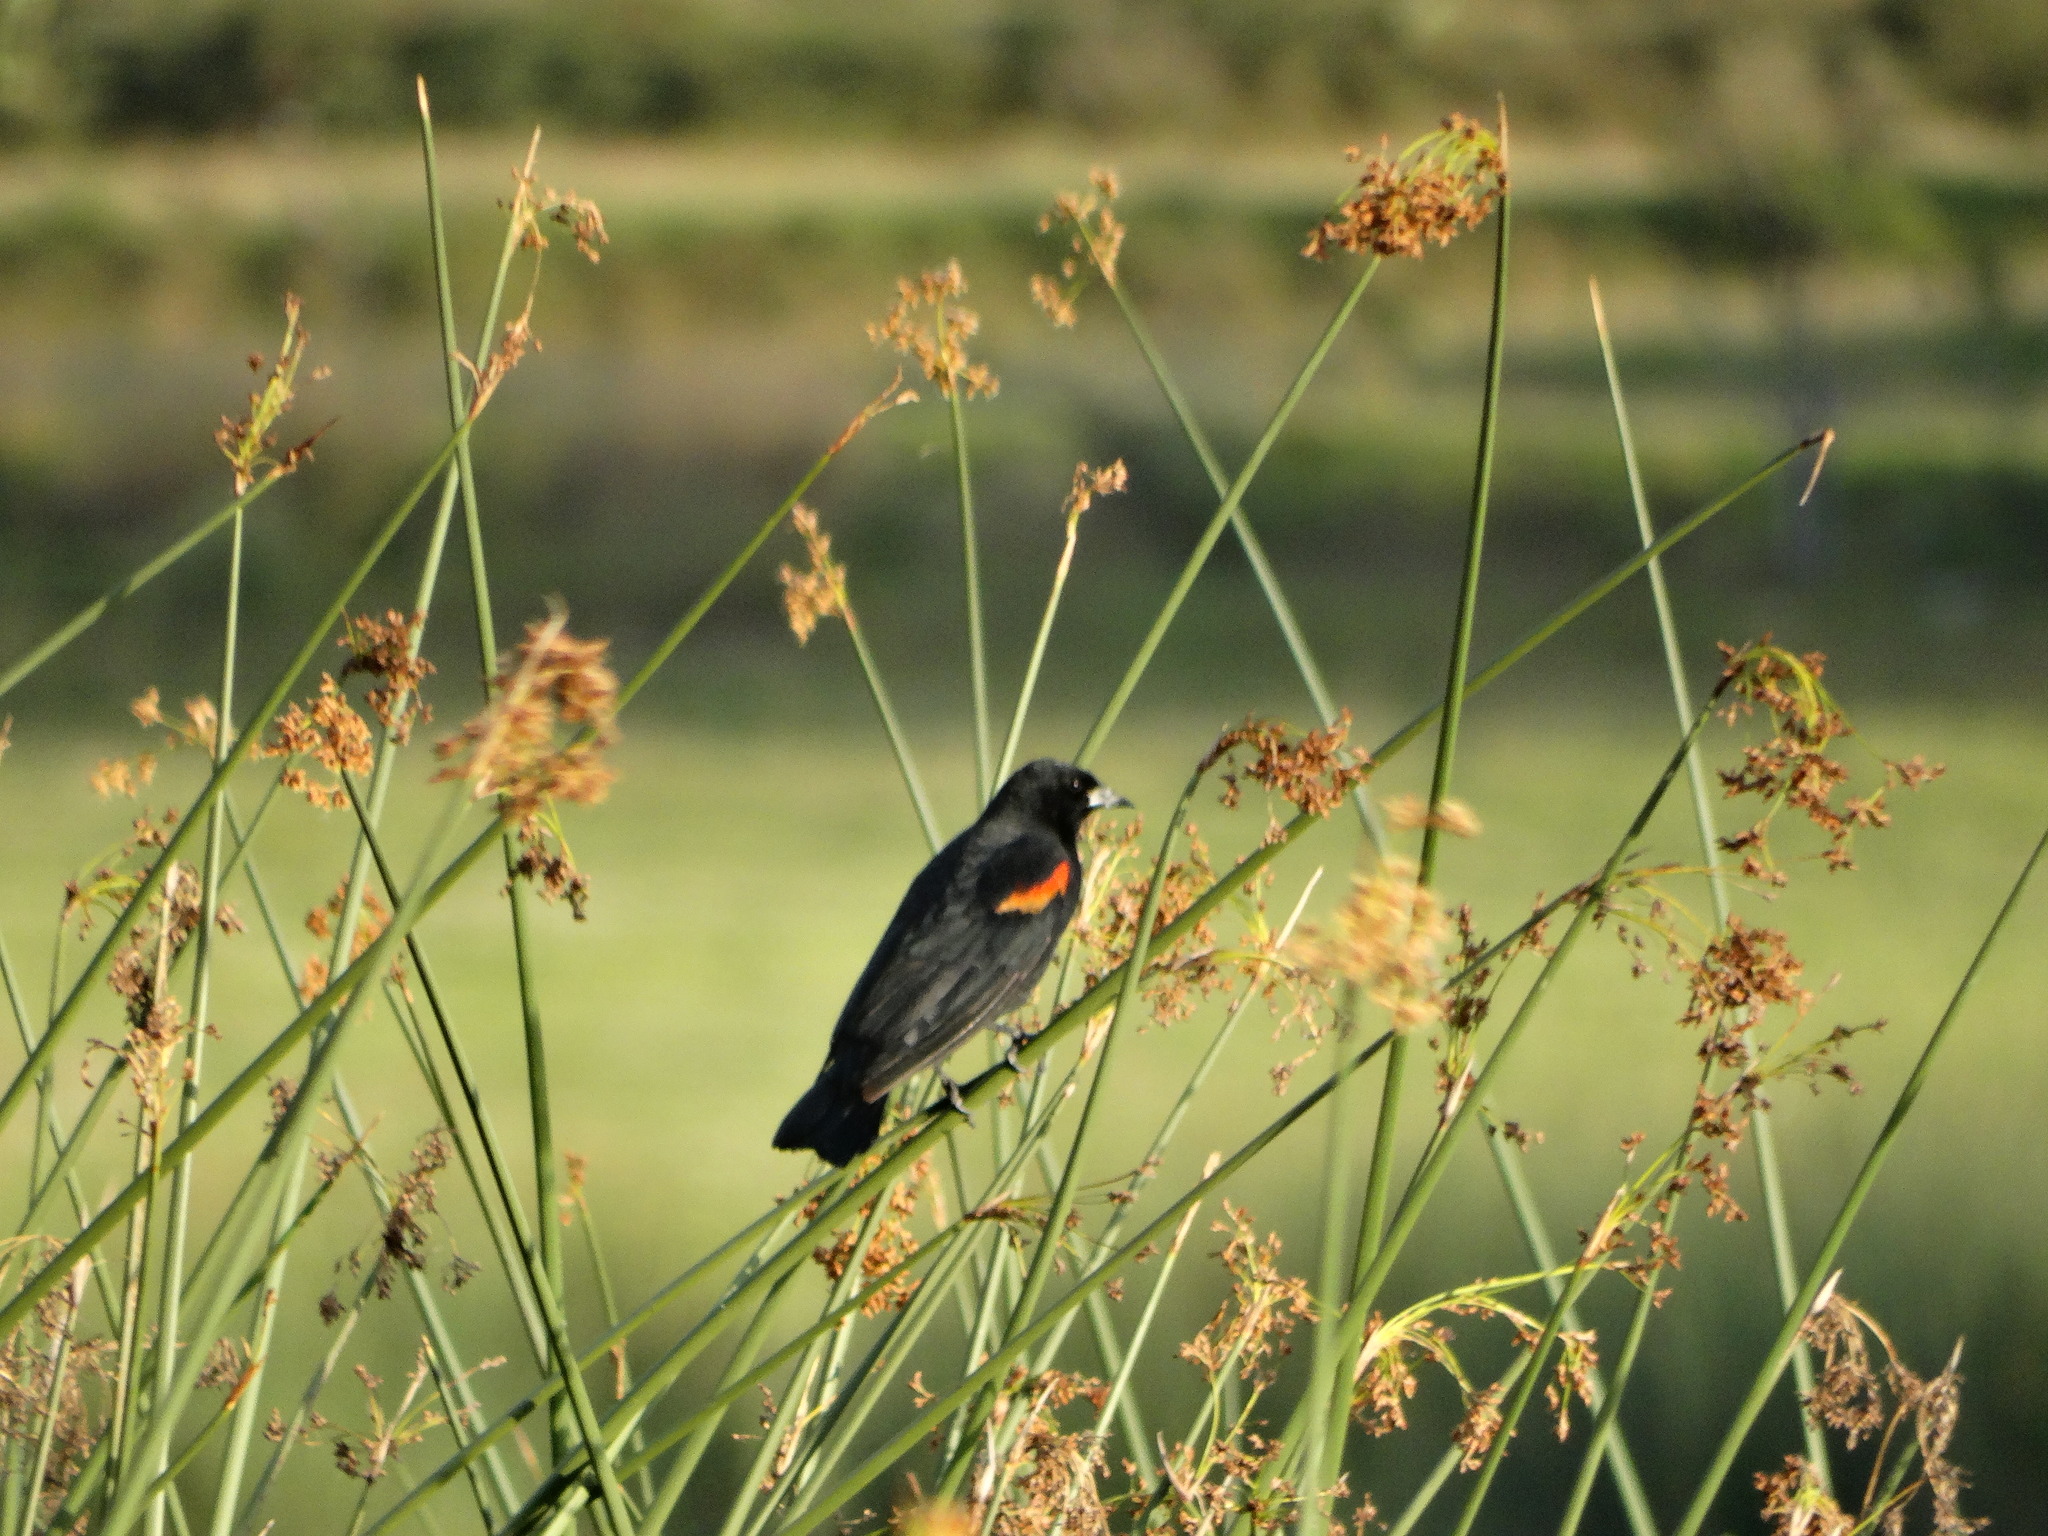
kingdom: Animalia
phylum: Chordata
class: Aves
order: Passeriformes
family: Icteridae
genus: Agelaius
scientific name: Agelaius phoeniceus
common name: Red-winged blackbird
